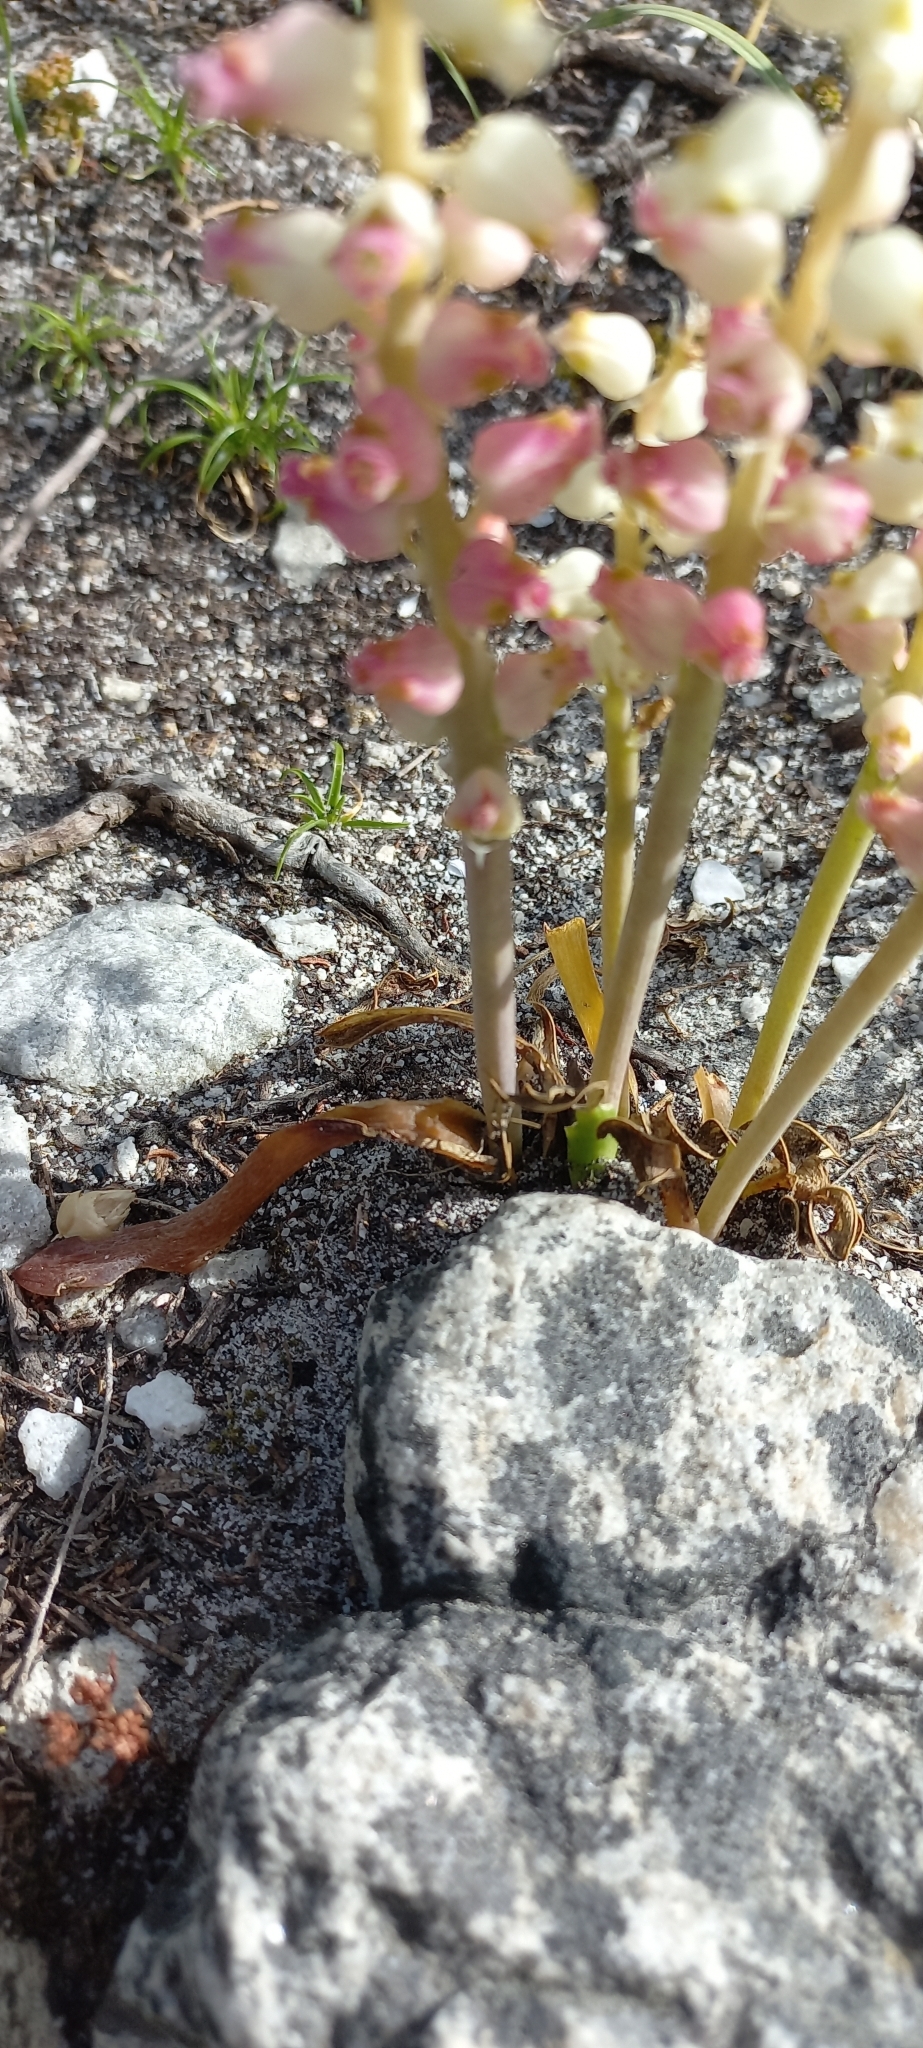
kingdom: Plantae
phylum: Tracheophyta
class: Liliopsida
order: Asparagales
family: Asparagaceae
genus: Lachenalia
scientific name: Lachenalia peersii
